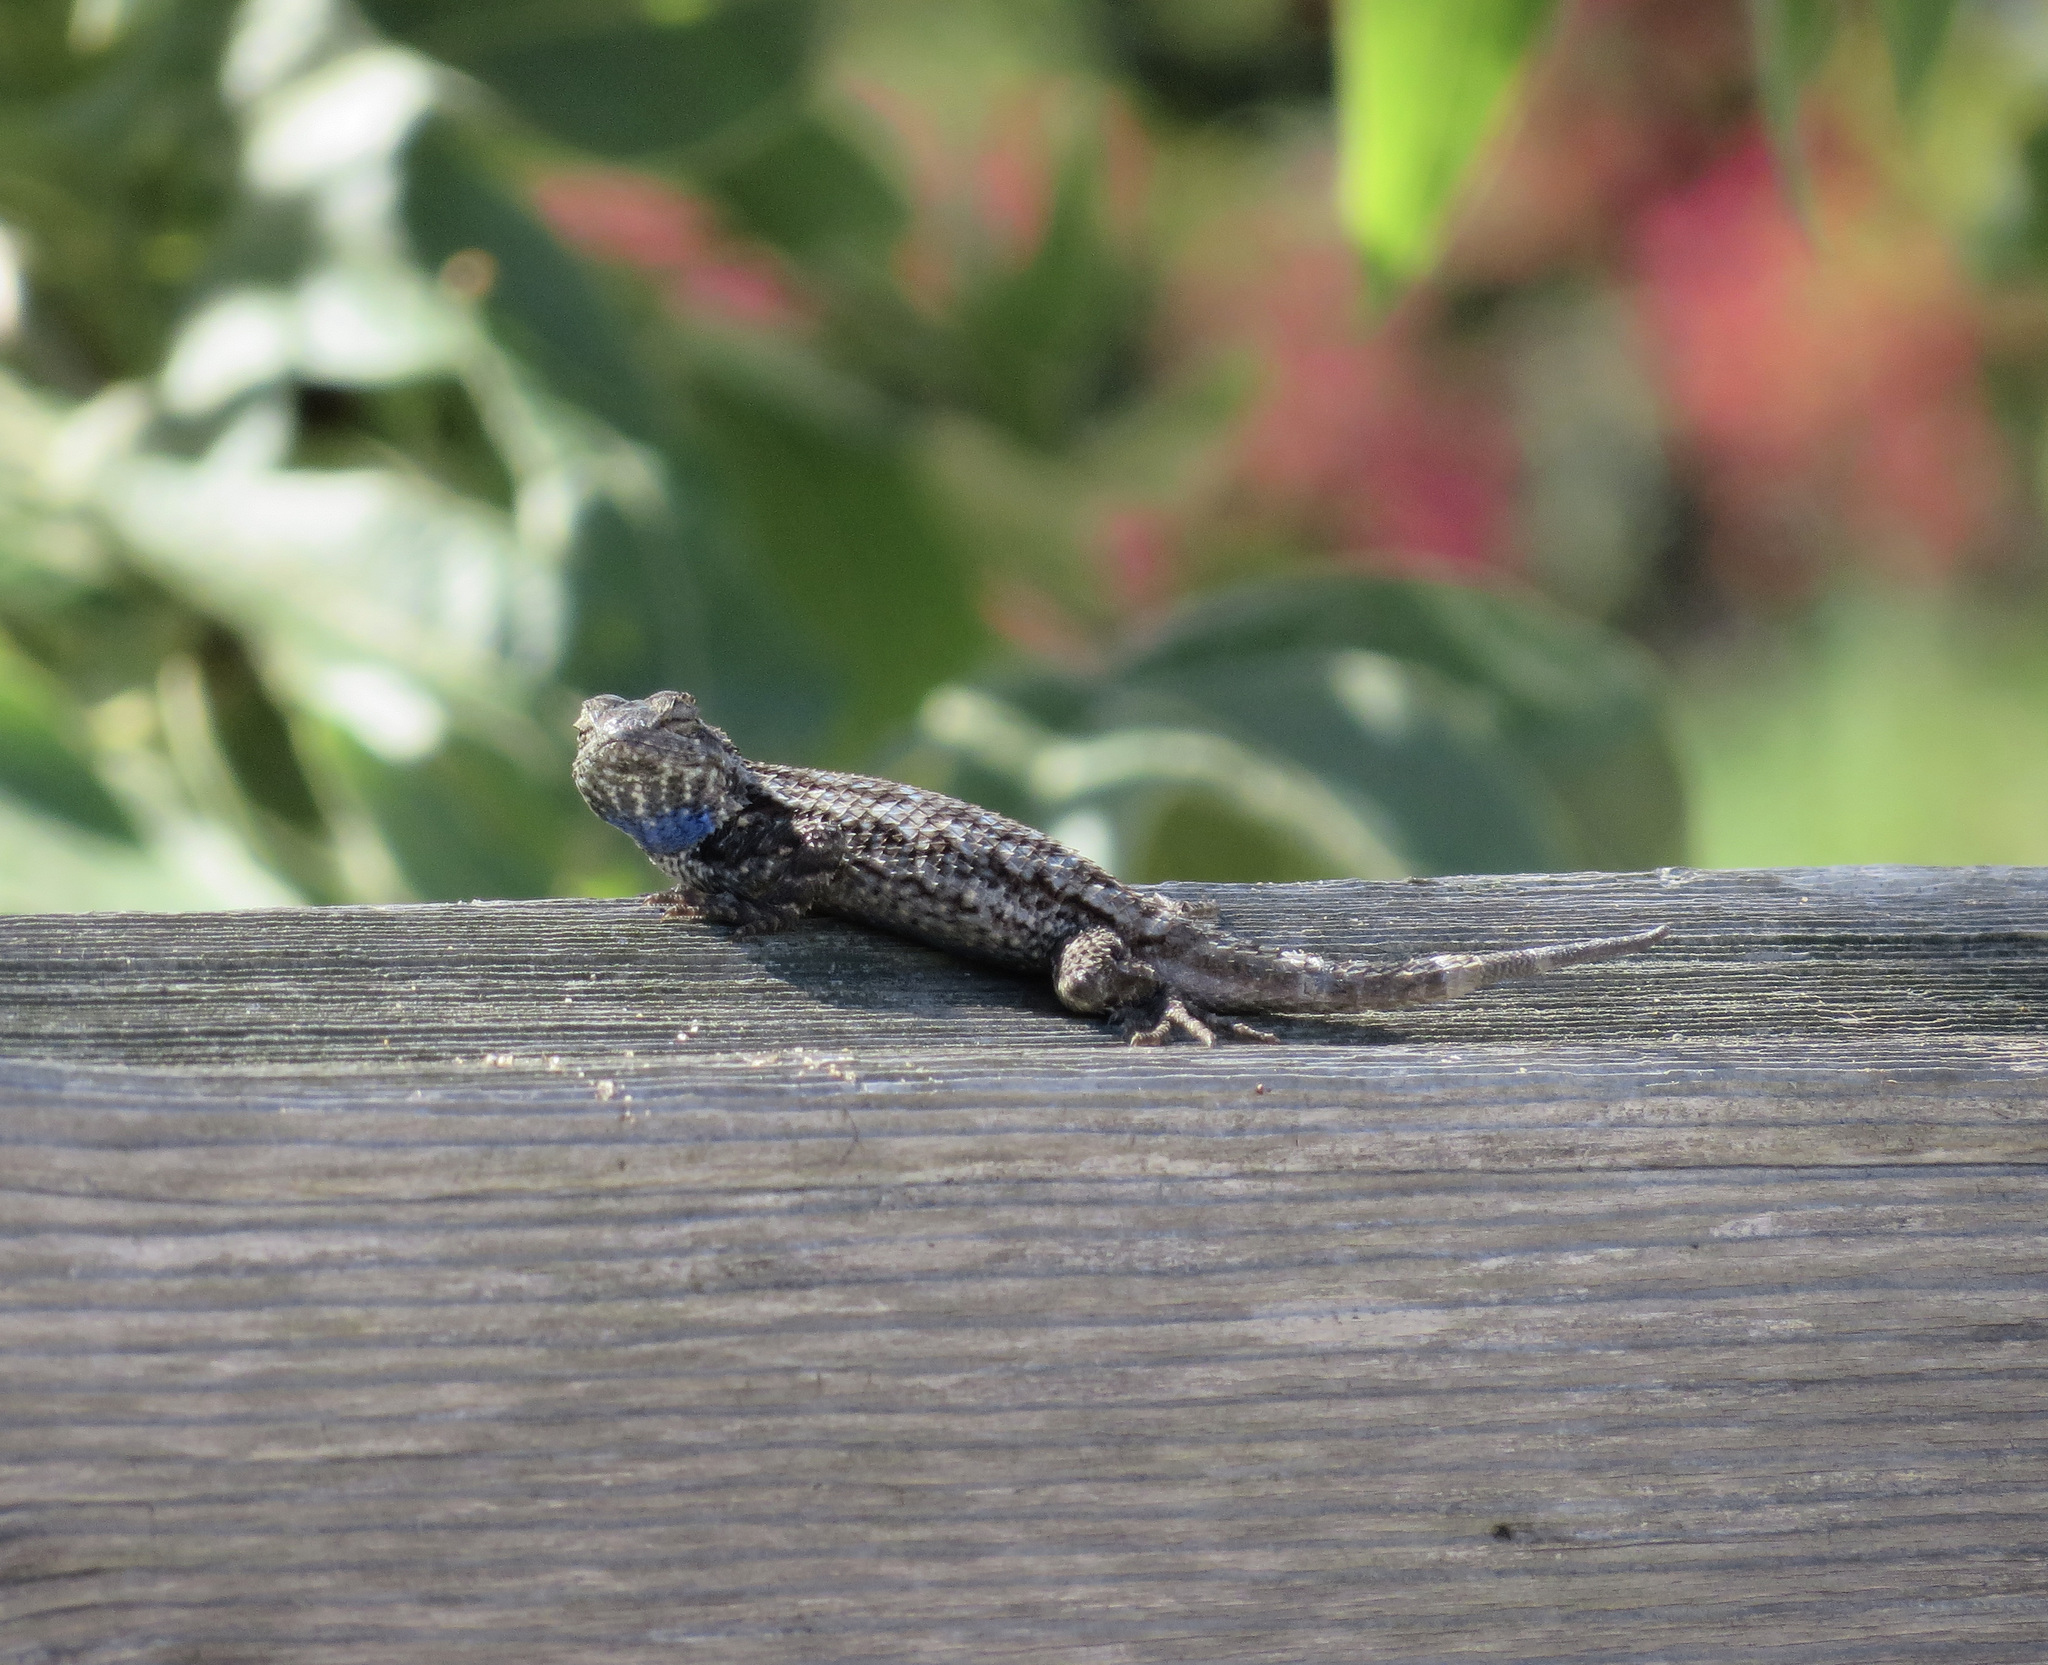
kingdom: Animalia
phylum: Chordata
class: Squamata
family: Phrynosomatidae
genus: Sceloporus
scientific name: Sceloporus occidentalis
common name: Western fence lizard
